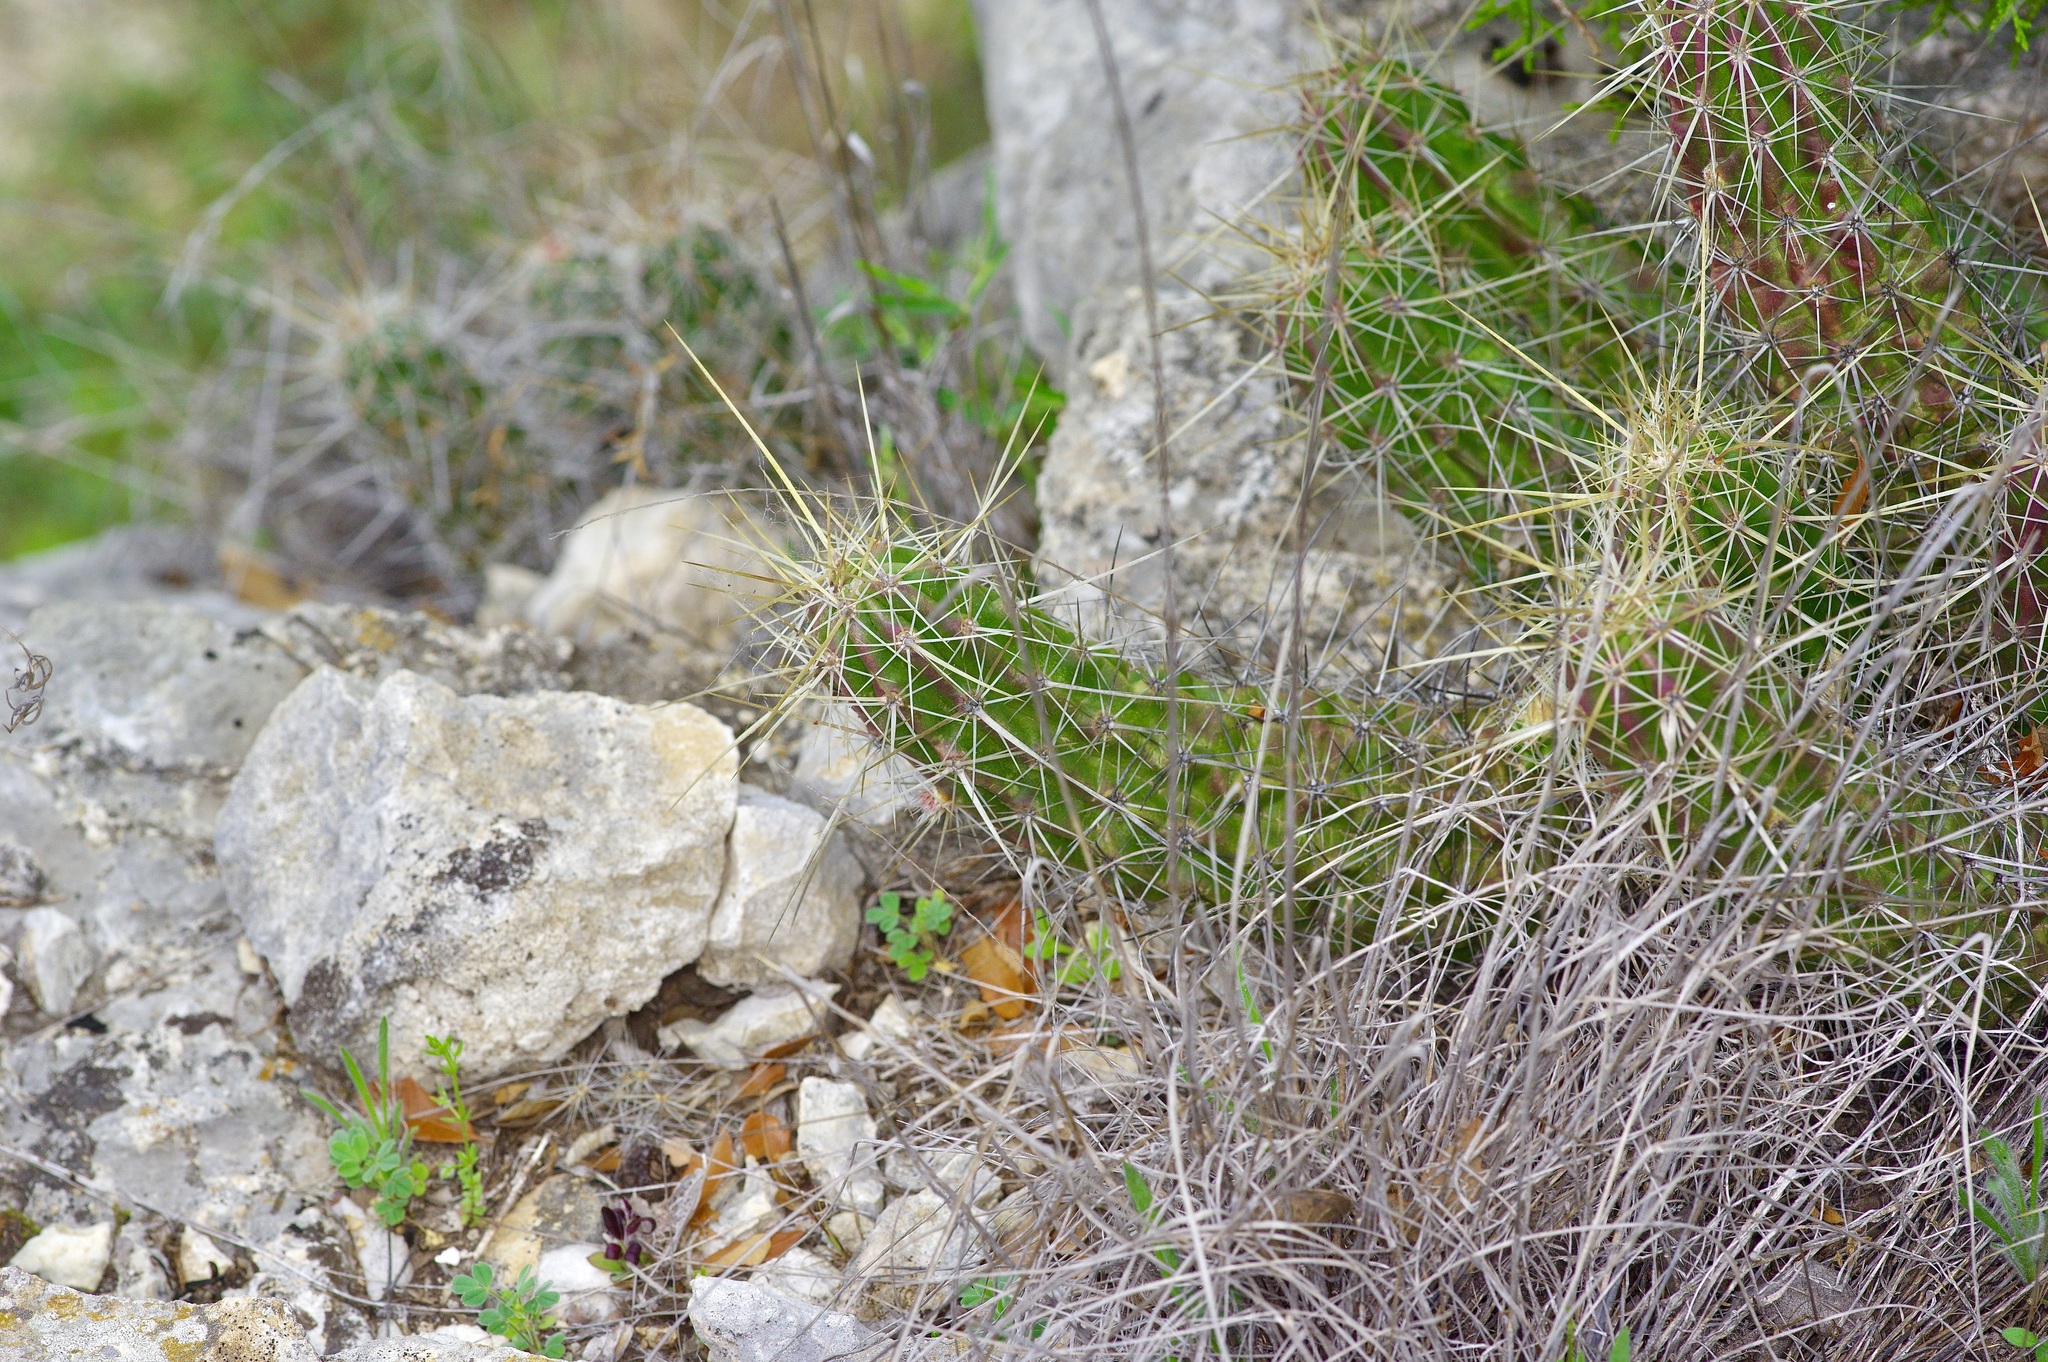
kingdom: Plantae
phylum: Tracheophyta
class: Magnoliopsida
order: Caryophyllales
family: Cactaceae
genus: Echinocereus
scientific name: Echinocereus enneacanthus
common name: Pitaya
